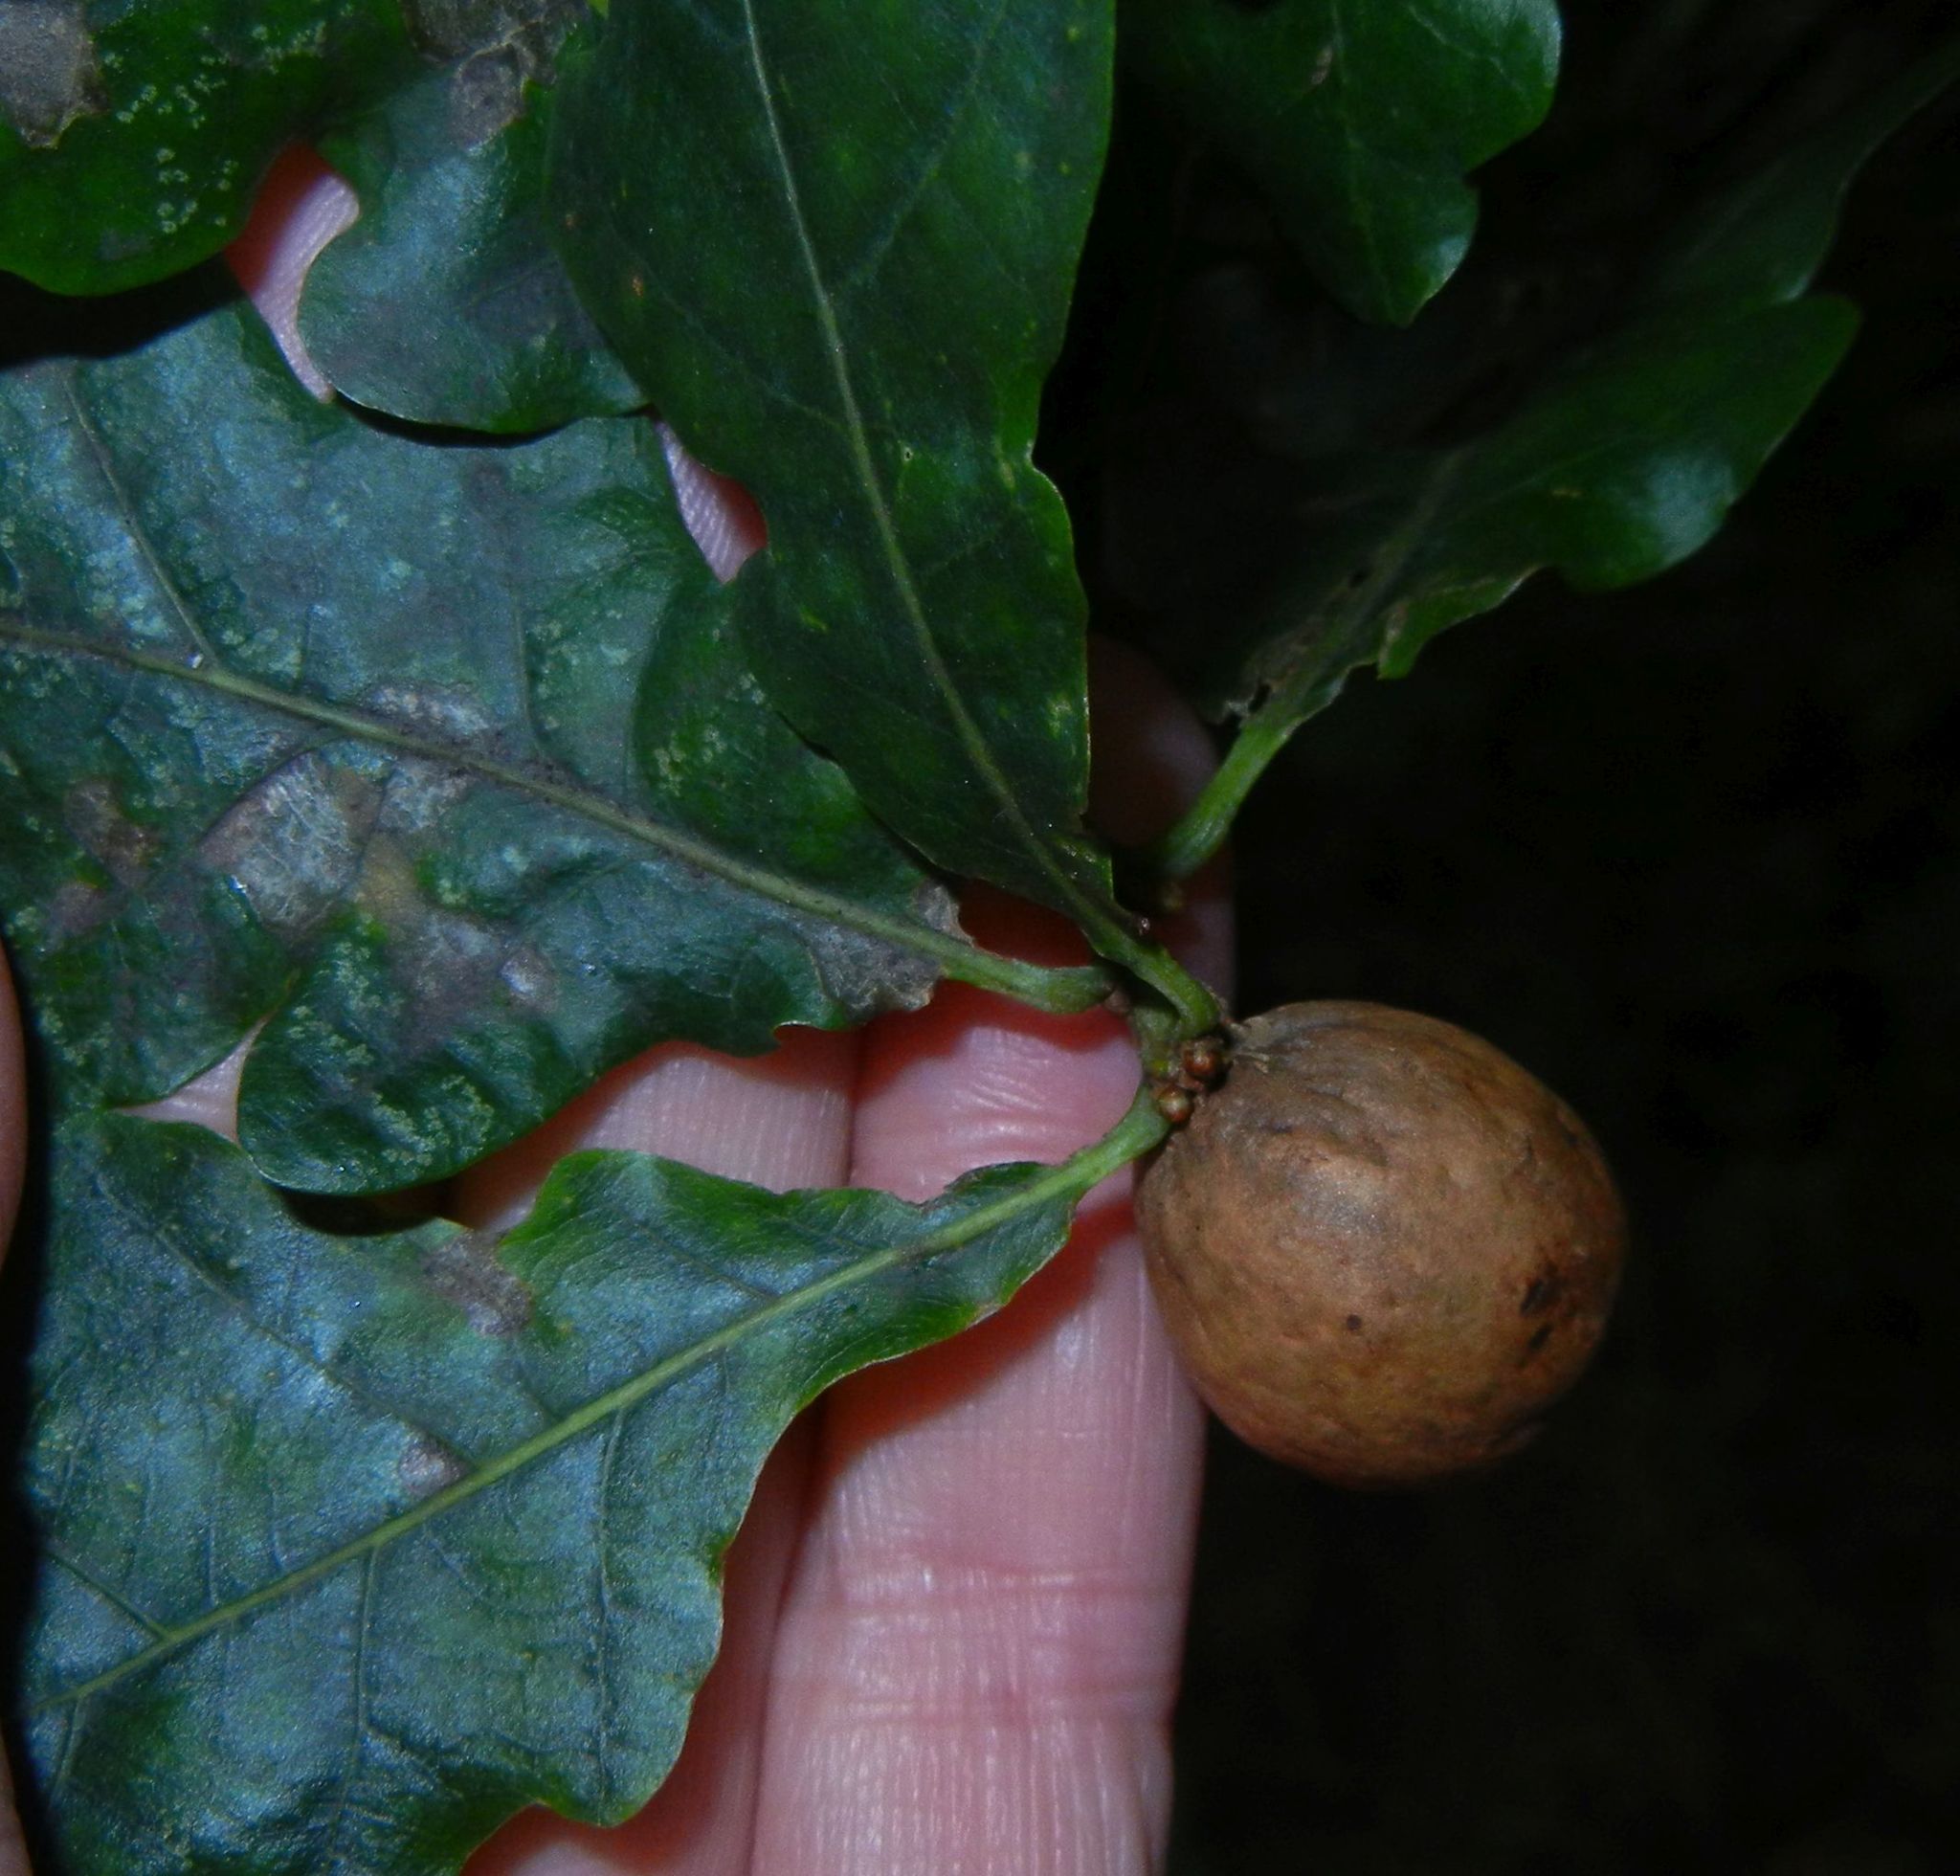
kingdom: Animalia
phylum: Arthropoda
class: Insecta
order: Hymenoptera
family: Cynipidae
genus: Andricus
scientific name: Andricus kollari
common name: Marble gall
